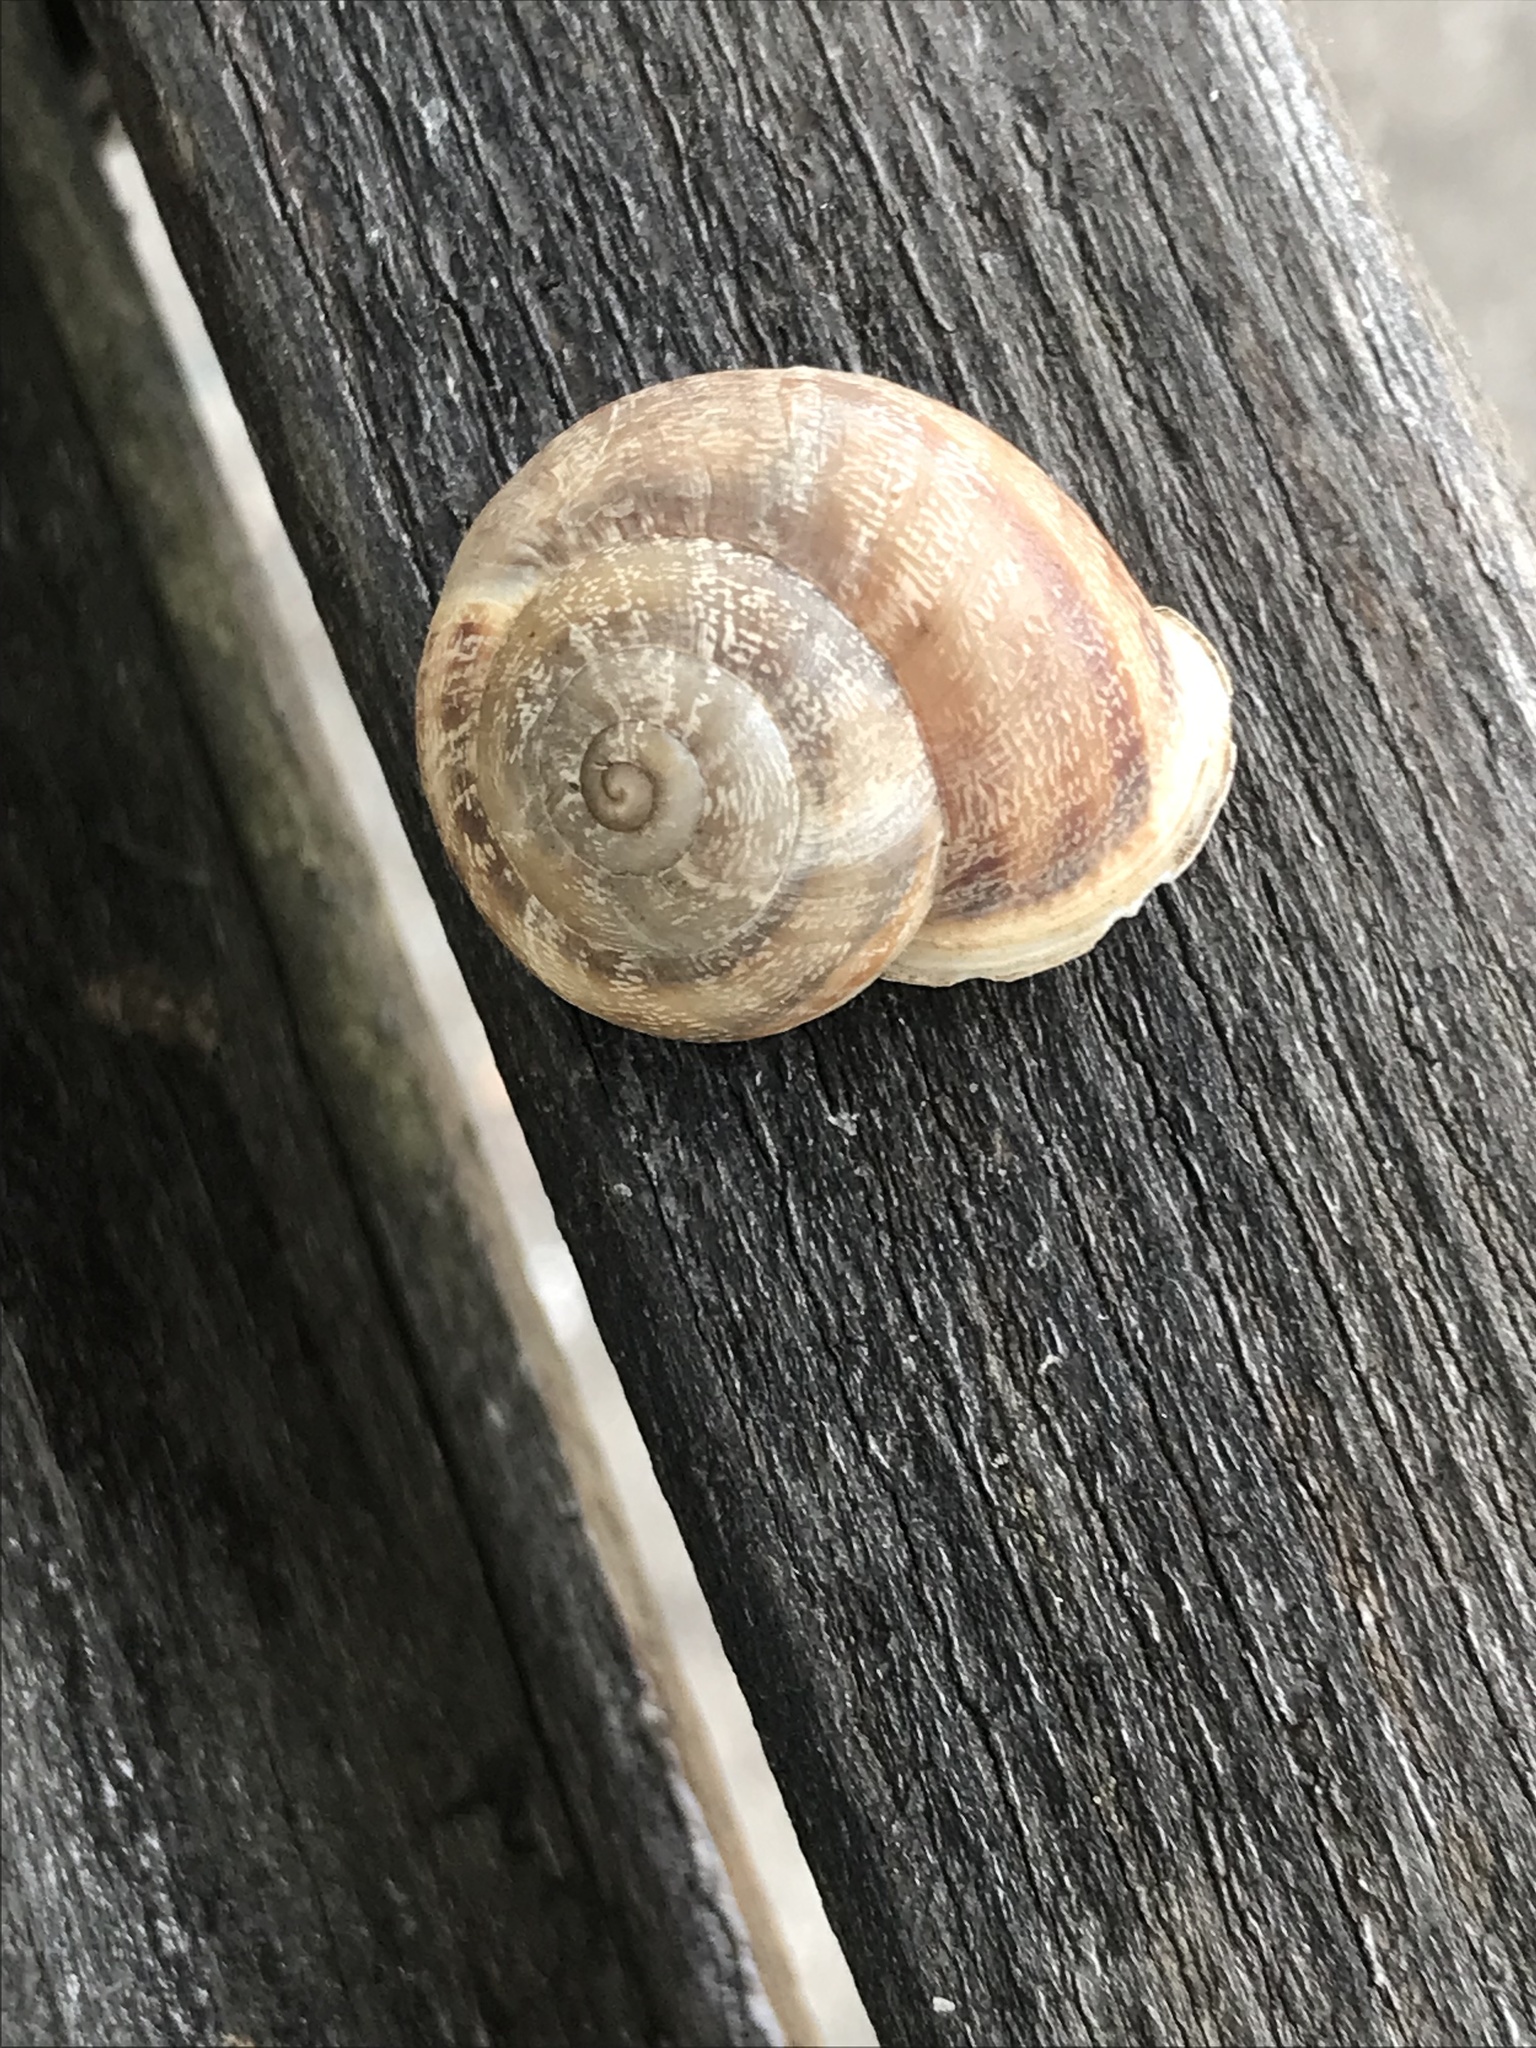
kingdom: Animalia
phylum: Mollusca
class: Gastropoda
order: Stylommatophora
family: Helicidae
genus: Eobania
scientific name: Eobania vermiculata
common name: Chocolateband snail
